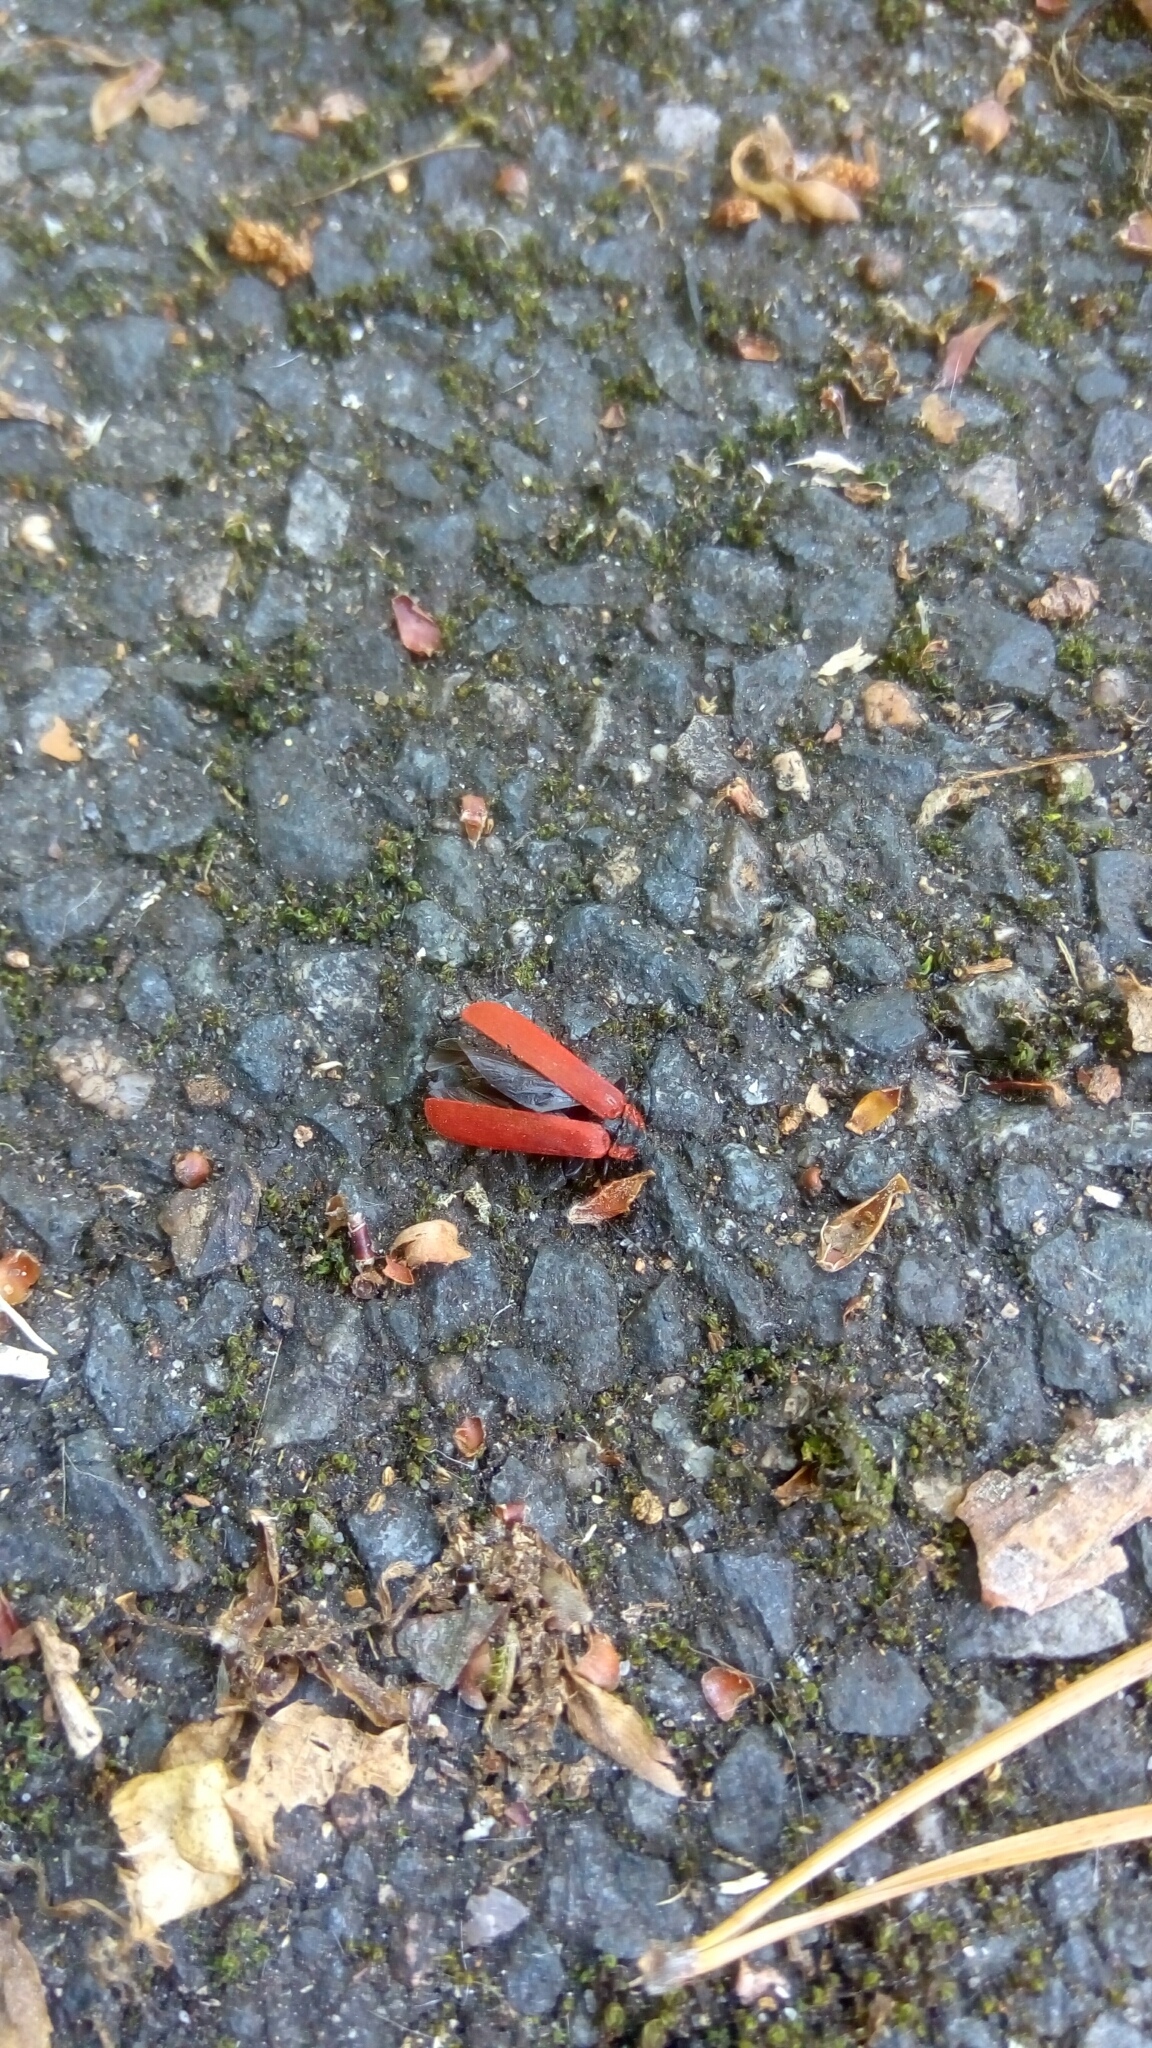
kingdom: Animalia
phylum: Arthropoda
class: Insecta
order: Coleoptera
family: Lycidae
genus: Lygistopterus
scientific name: Lygistopterus sanguineus
